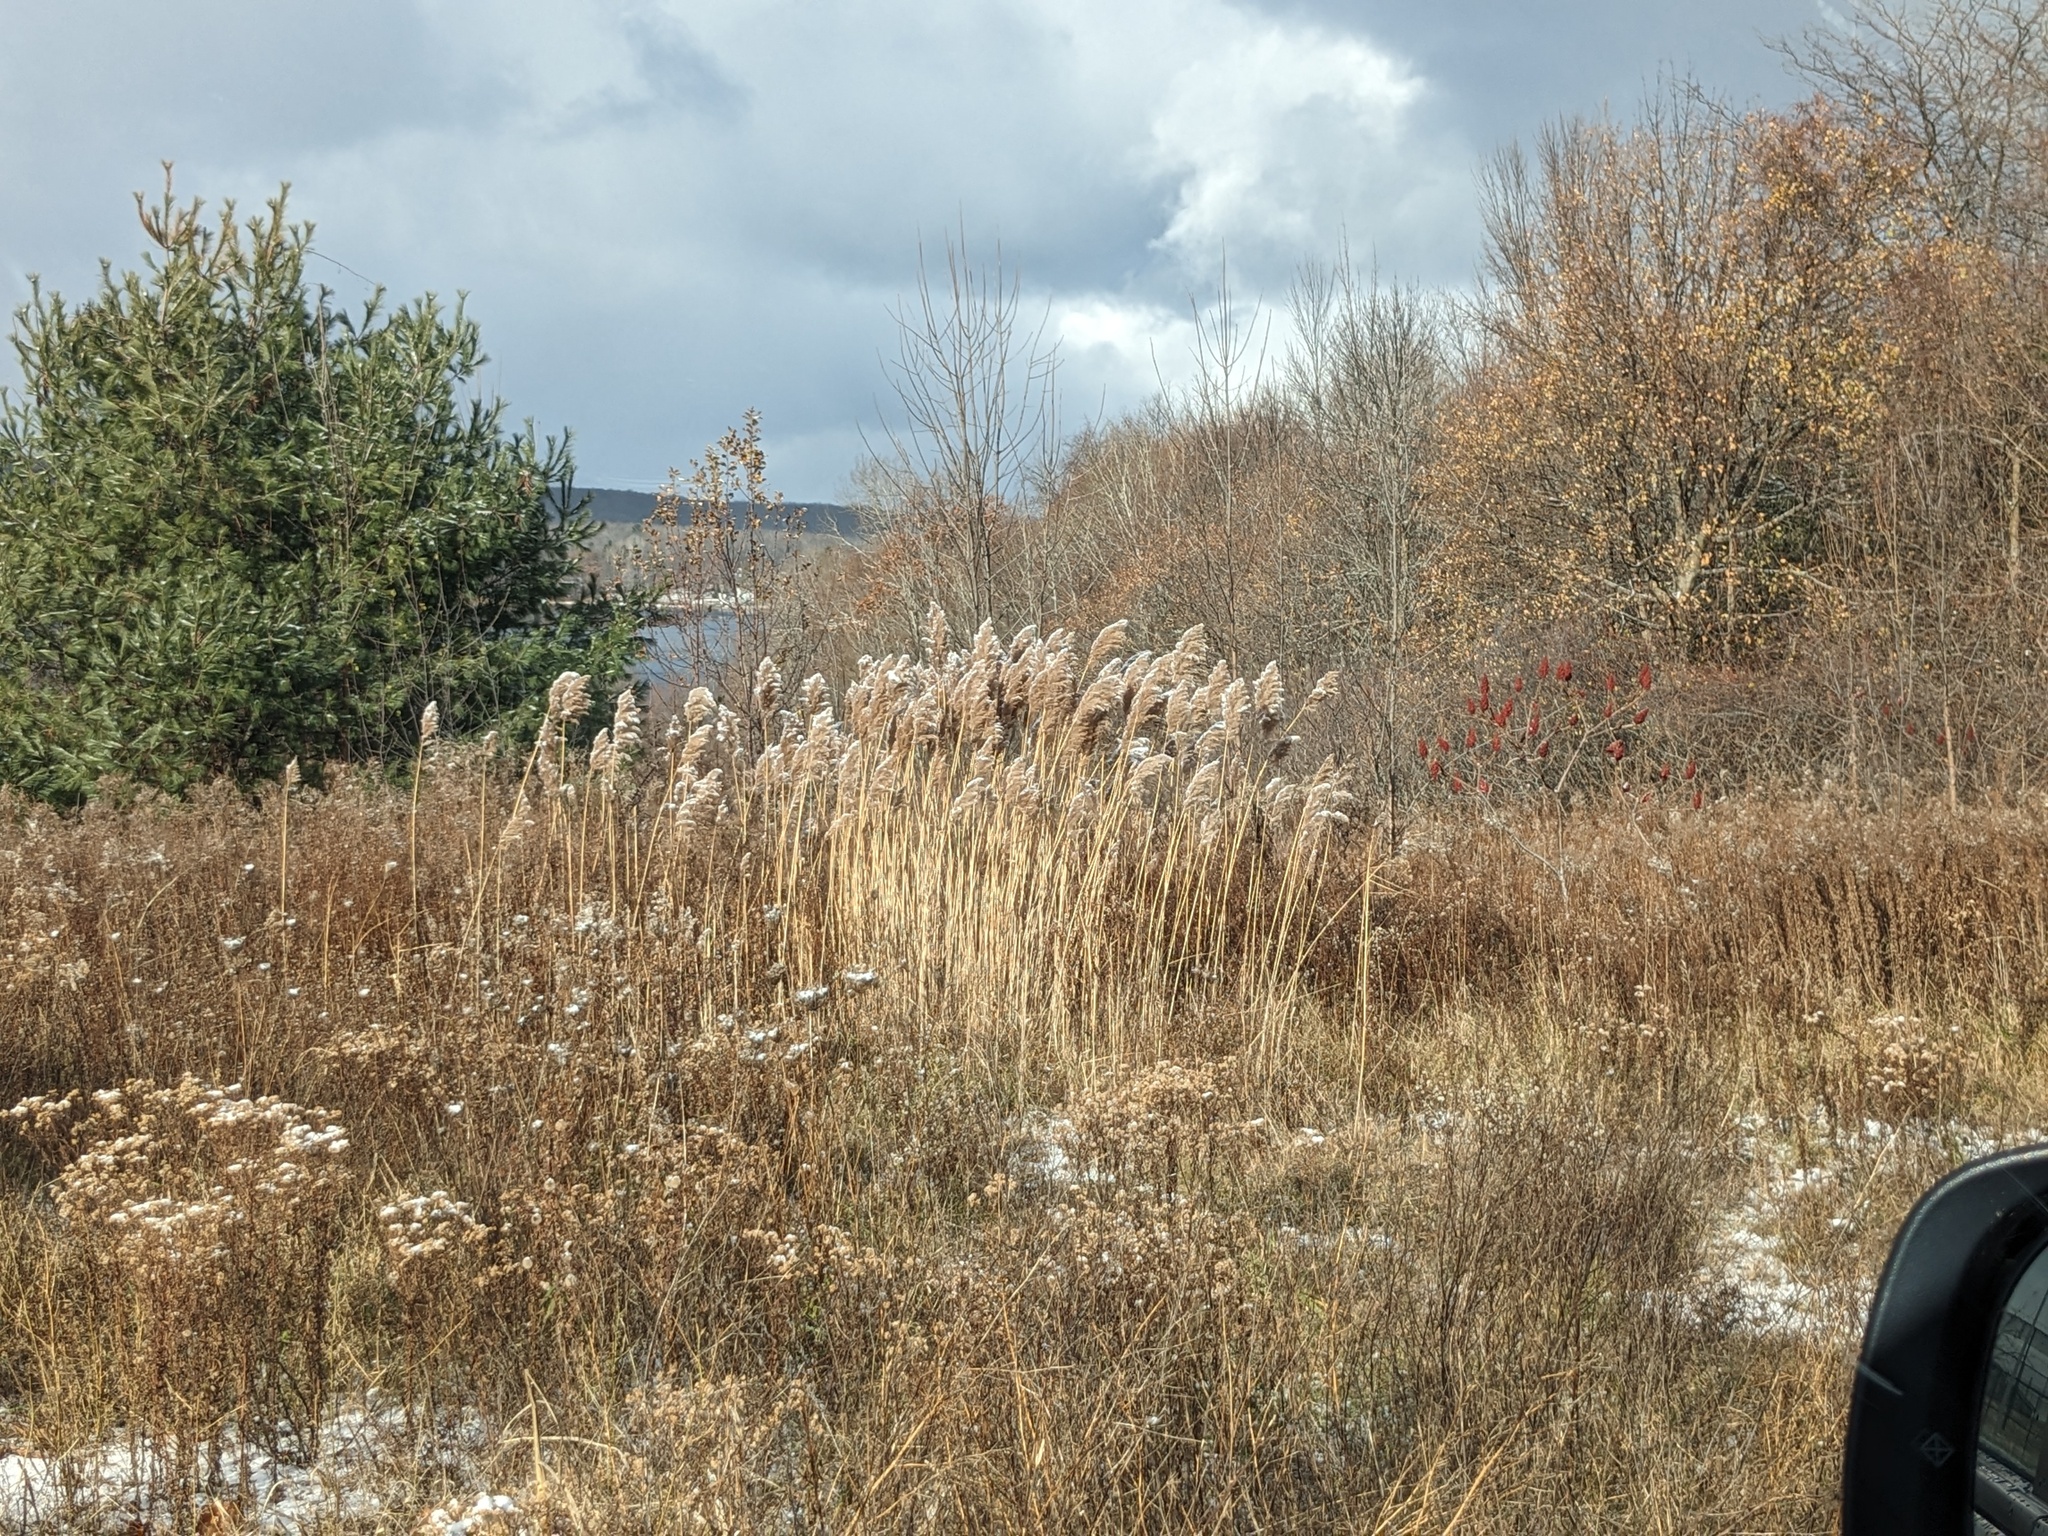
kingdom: Plantae
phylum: Tracheophyta
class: Liliopsida
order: Poales
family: Poaceae
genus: Phragmites
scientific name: Phragmites australis
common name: Common reed
